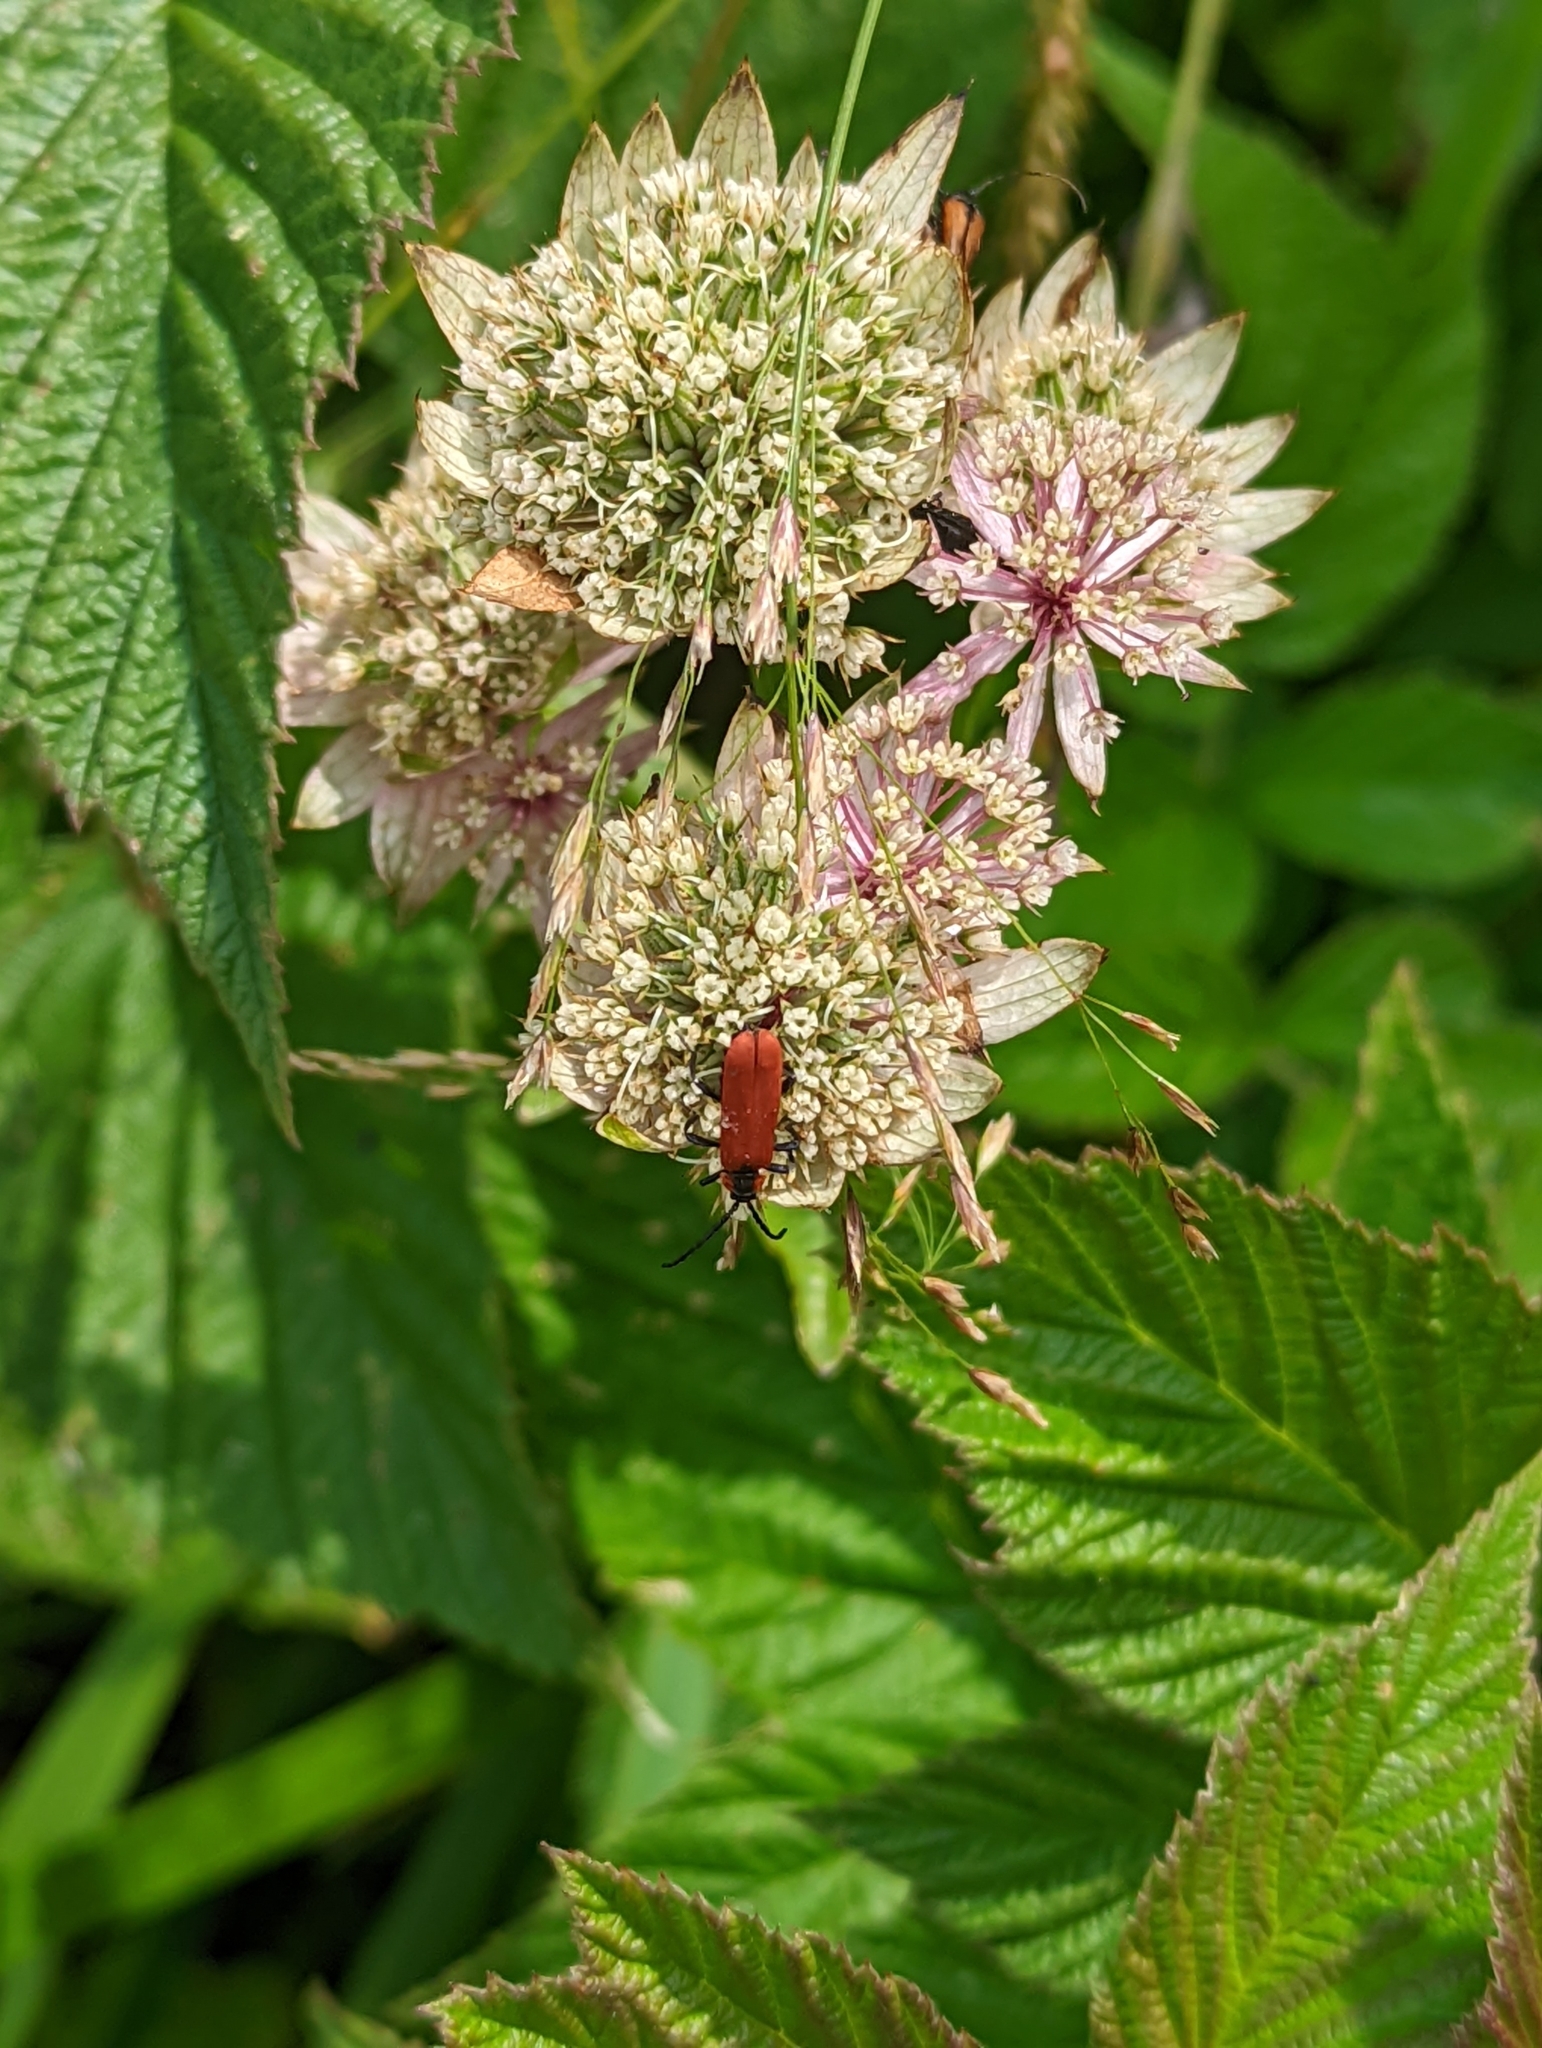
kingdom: Animalia
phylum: Arthropoda
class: Insecta
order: Coleoptera
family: Lycidae
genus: Lygistopterus
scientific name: Lygistopterus sanguineus
